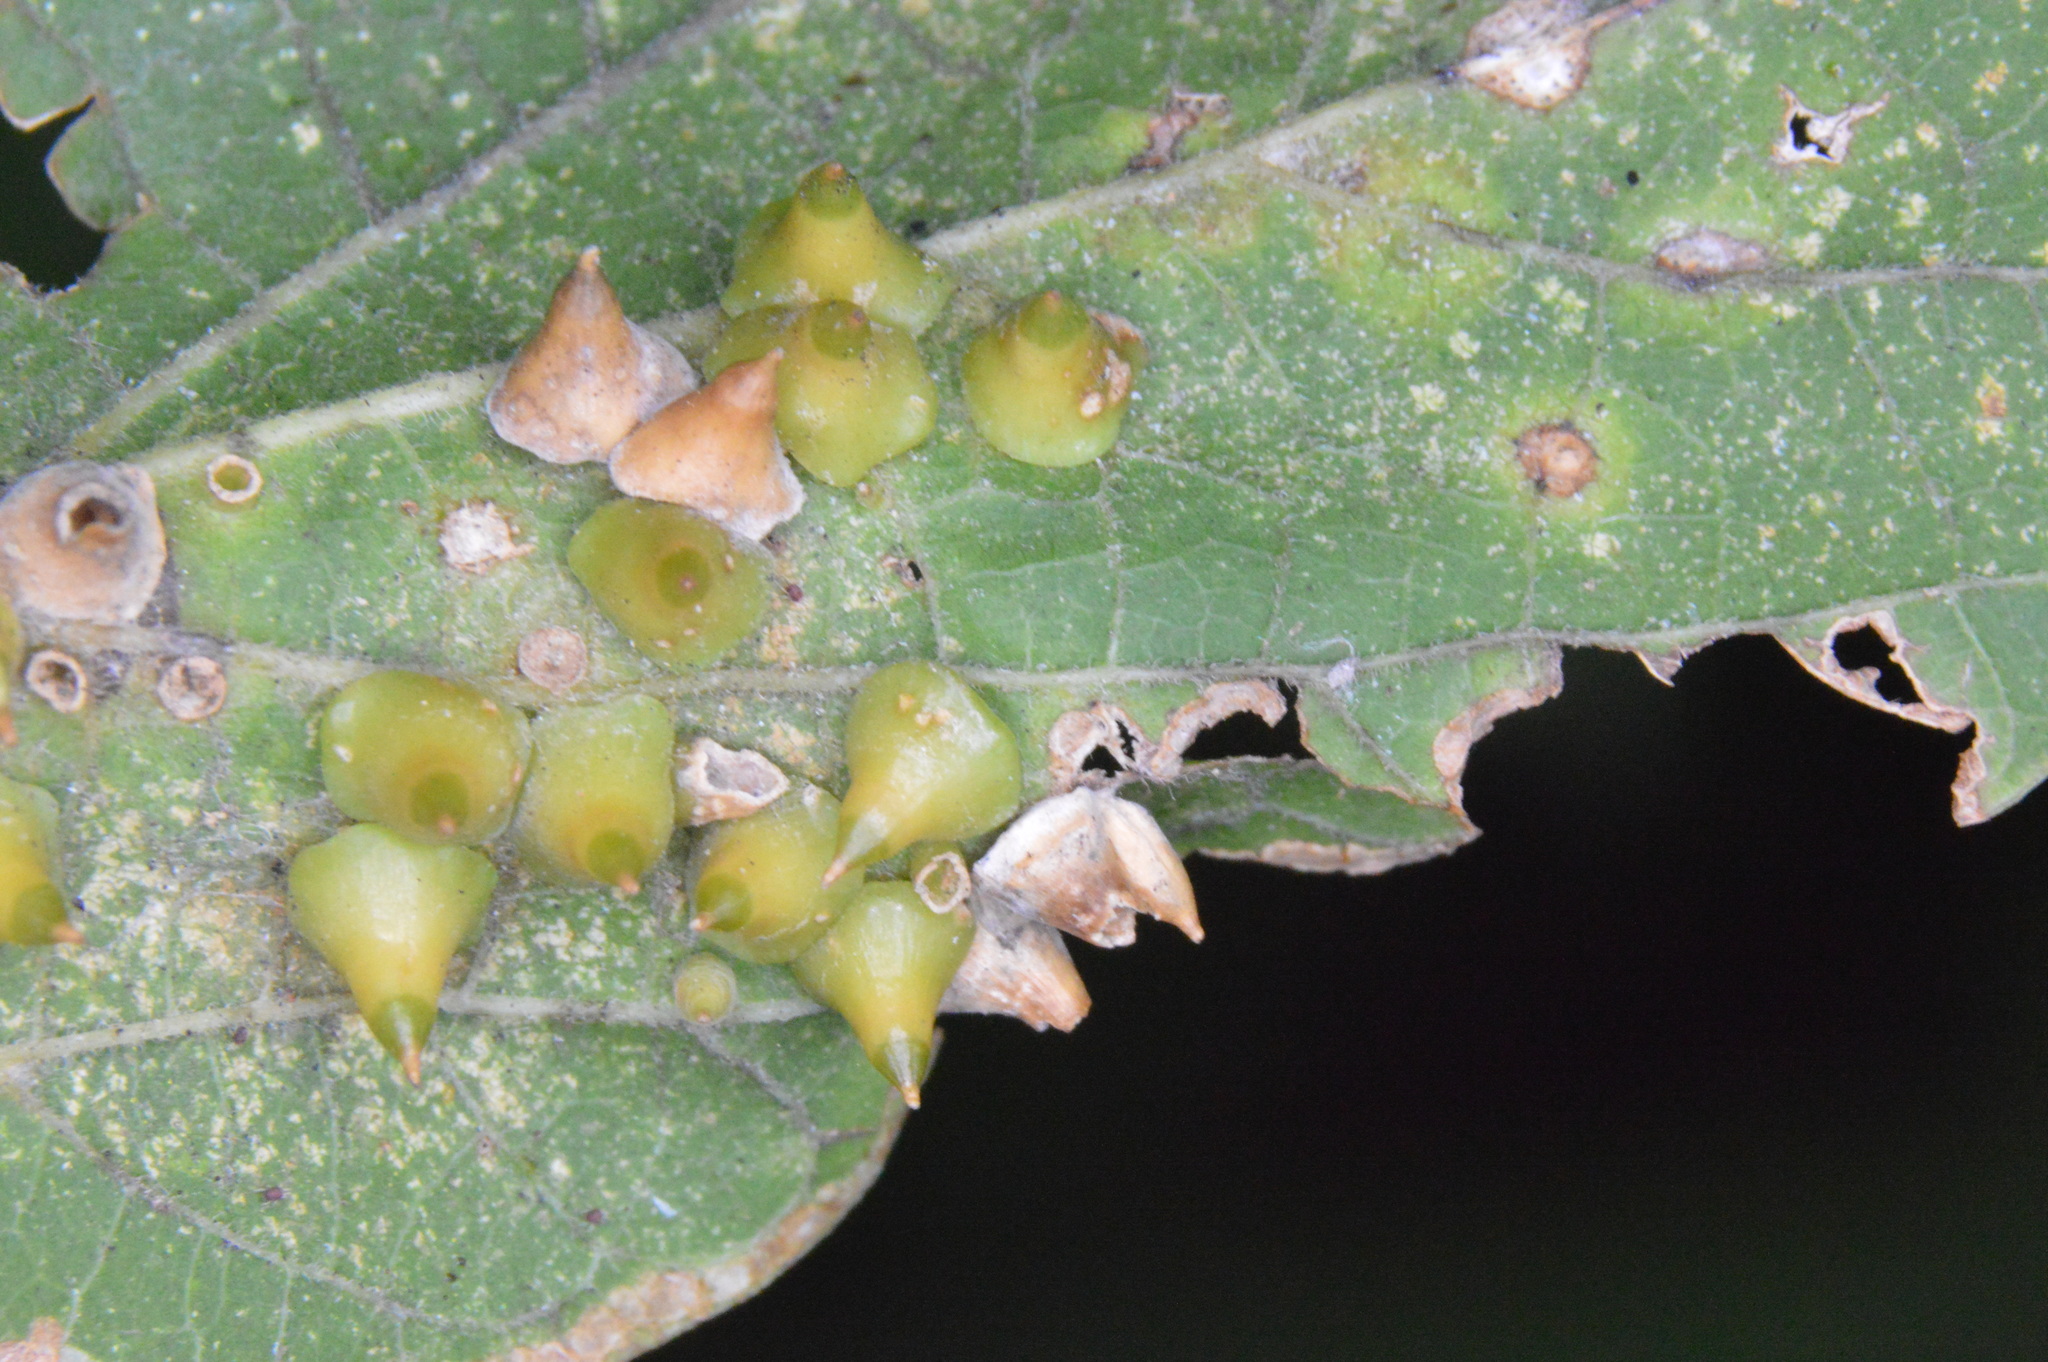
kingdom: Animalia
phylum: Arthropoda
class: Insecta
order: Diptera
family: Cecidomyiidae
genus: Celticecis
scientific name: Celticecis spiniformis
